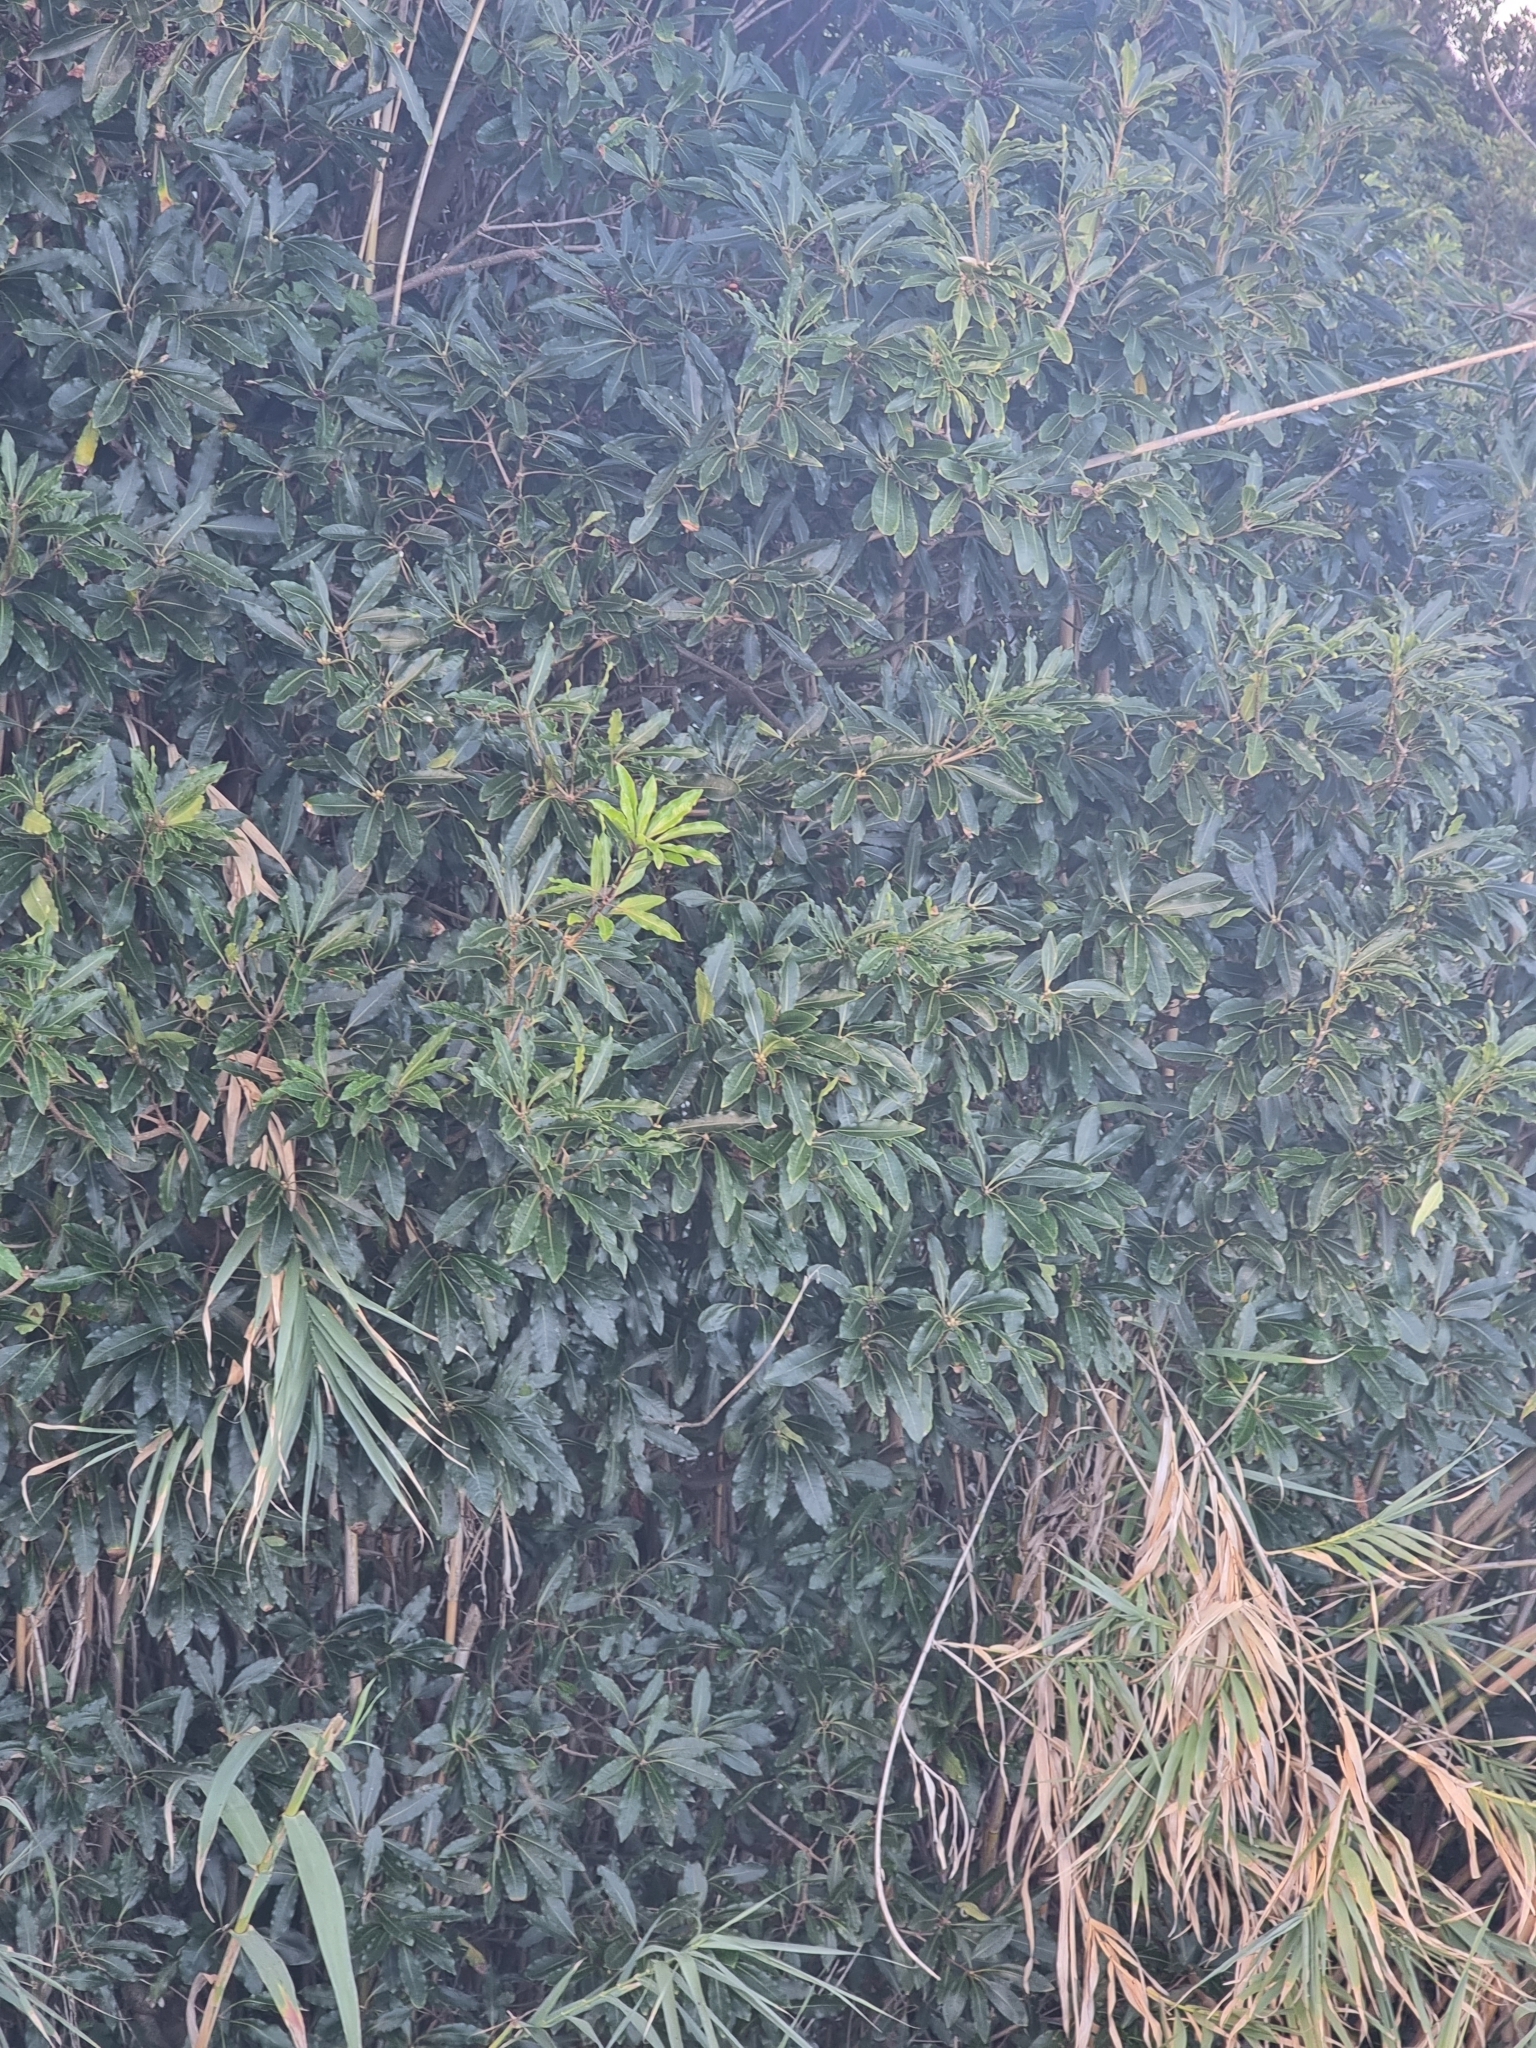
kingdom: Plantae
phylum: Tracheophyta
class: Magnoliopsida
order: Apiales
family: Pittosporaceae
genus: Pittosporum
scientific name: Pittosporum undulatum
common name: Australian cheesewood
